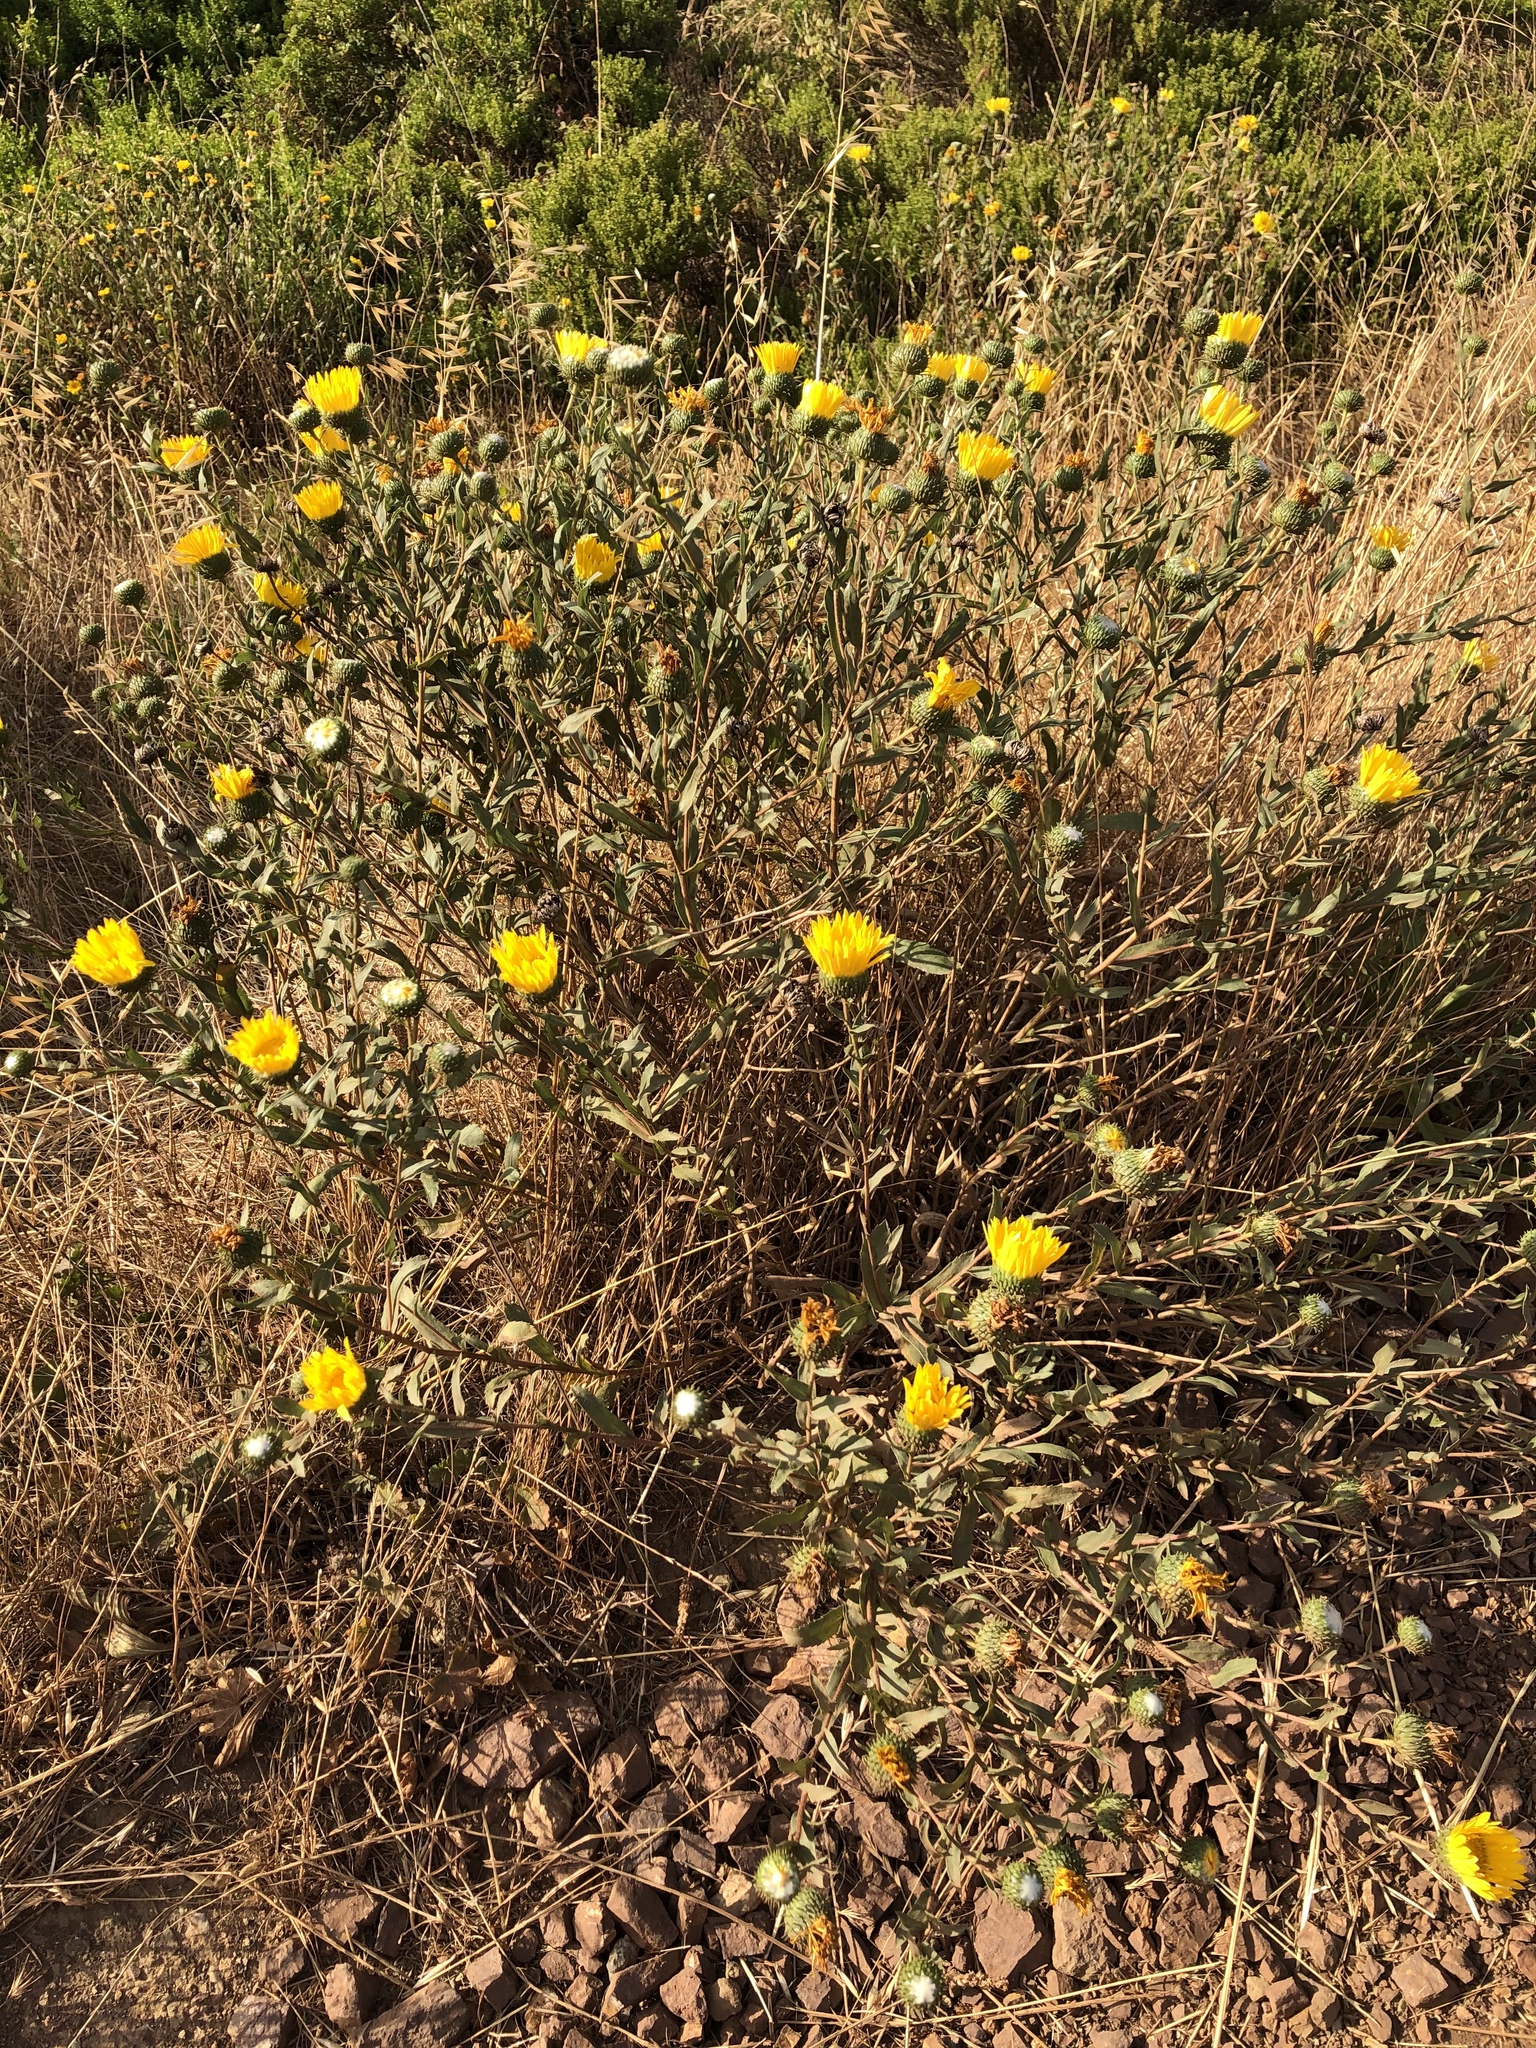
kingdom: Plantae
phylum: Tracheophyta
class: Magnoliopsida
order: Asterales
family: Asteraceae
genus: Grindelia
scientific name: Grindelia hirsutula
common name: Hairy gumweed
